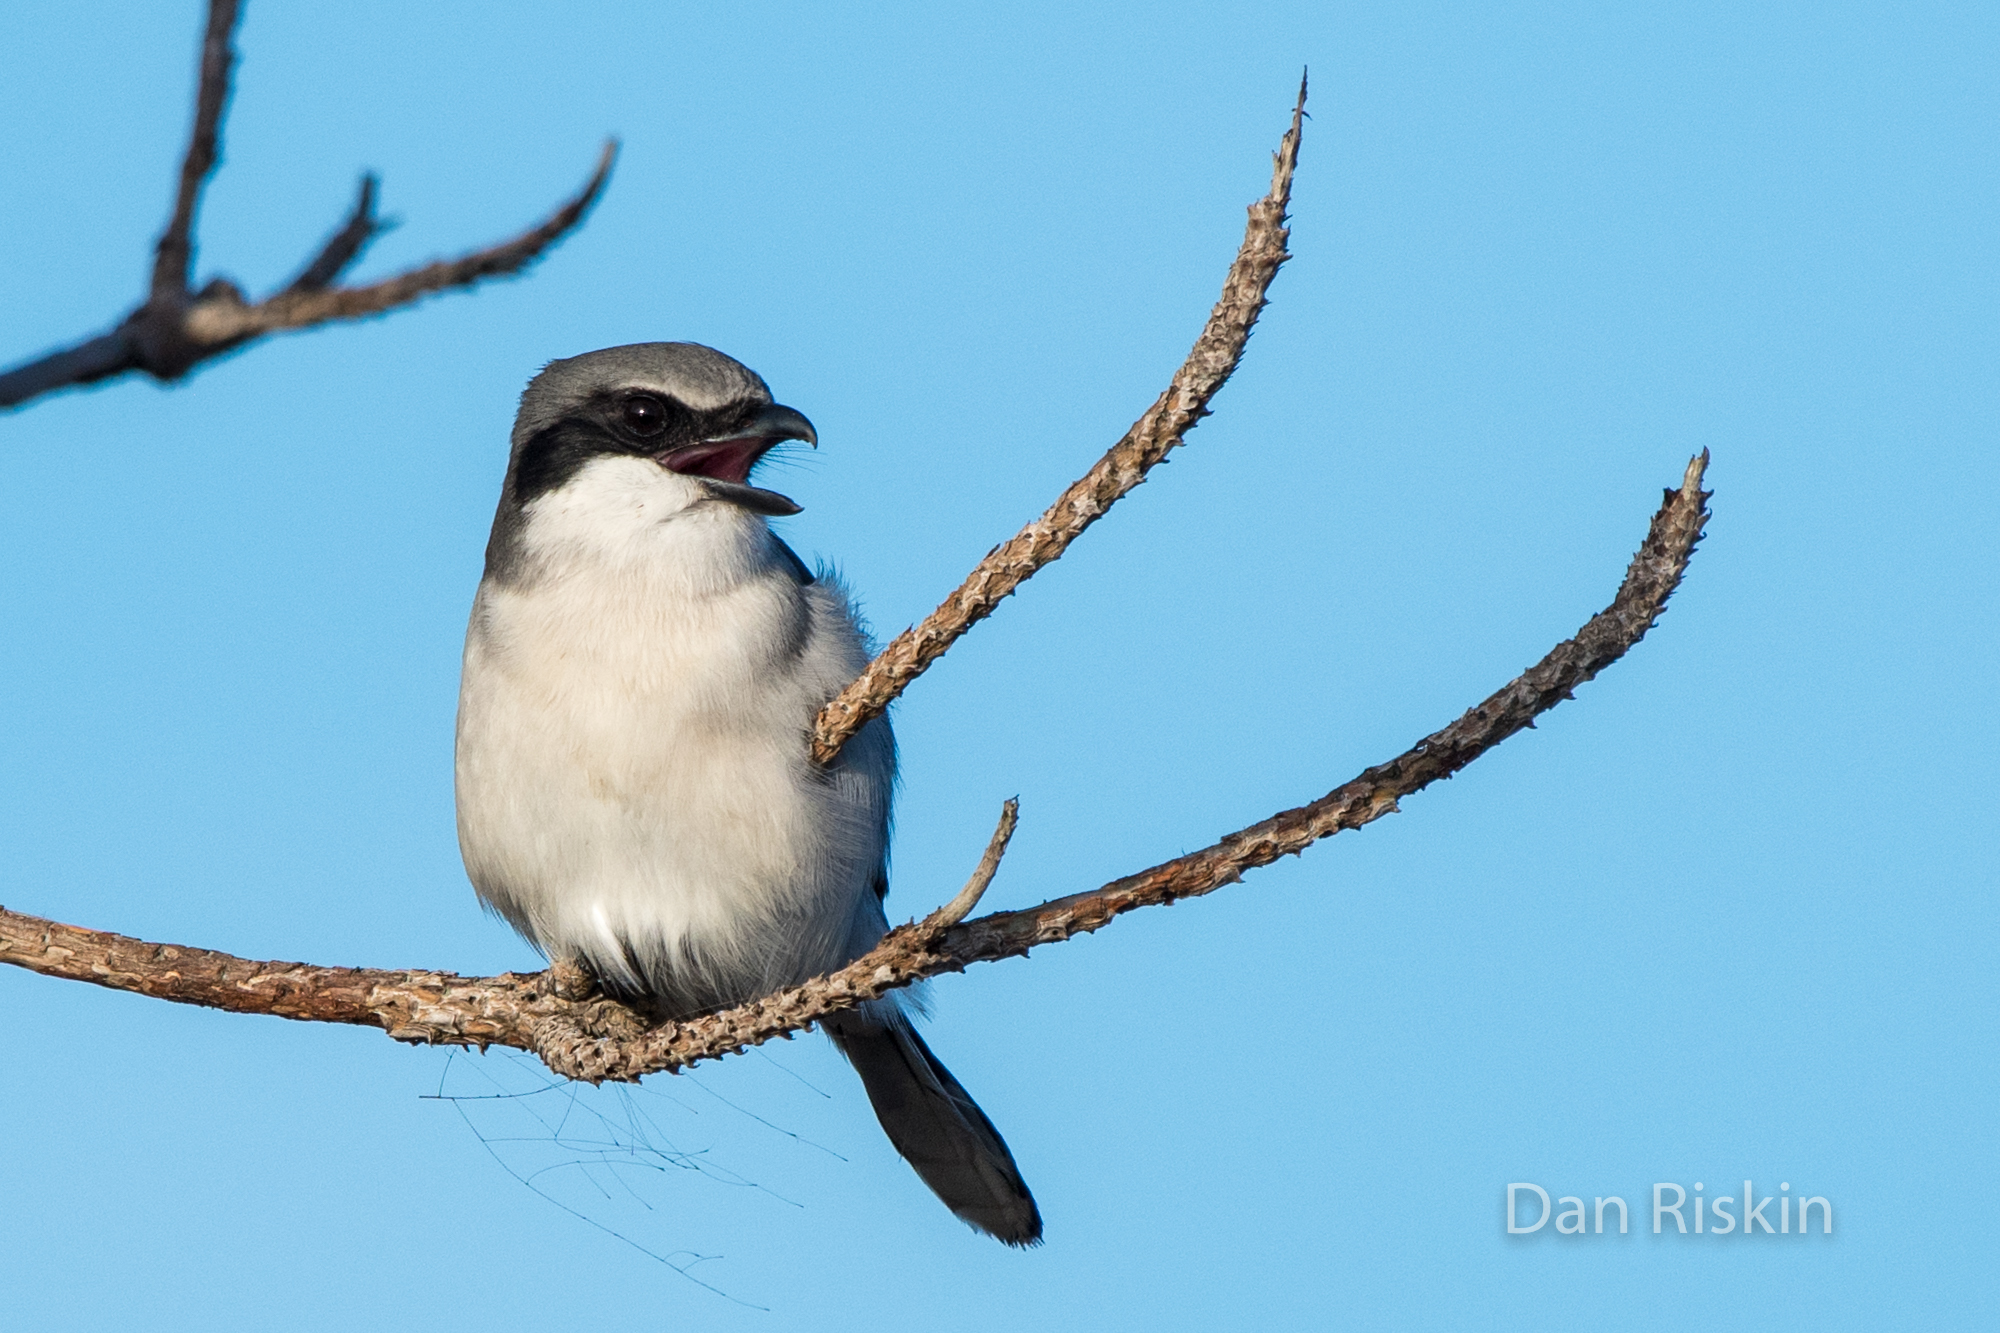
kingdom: Animalia
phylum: Chordata
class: Aves
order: Passeriformes
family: Laniidae
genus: Lanius
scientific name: Lanius ludovicianus
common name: Loggerhead shrike
